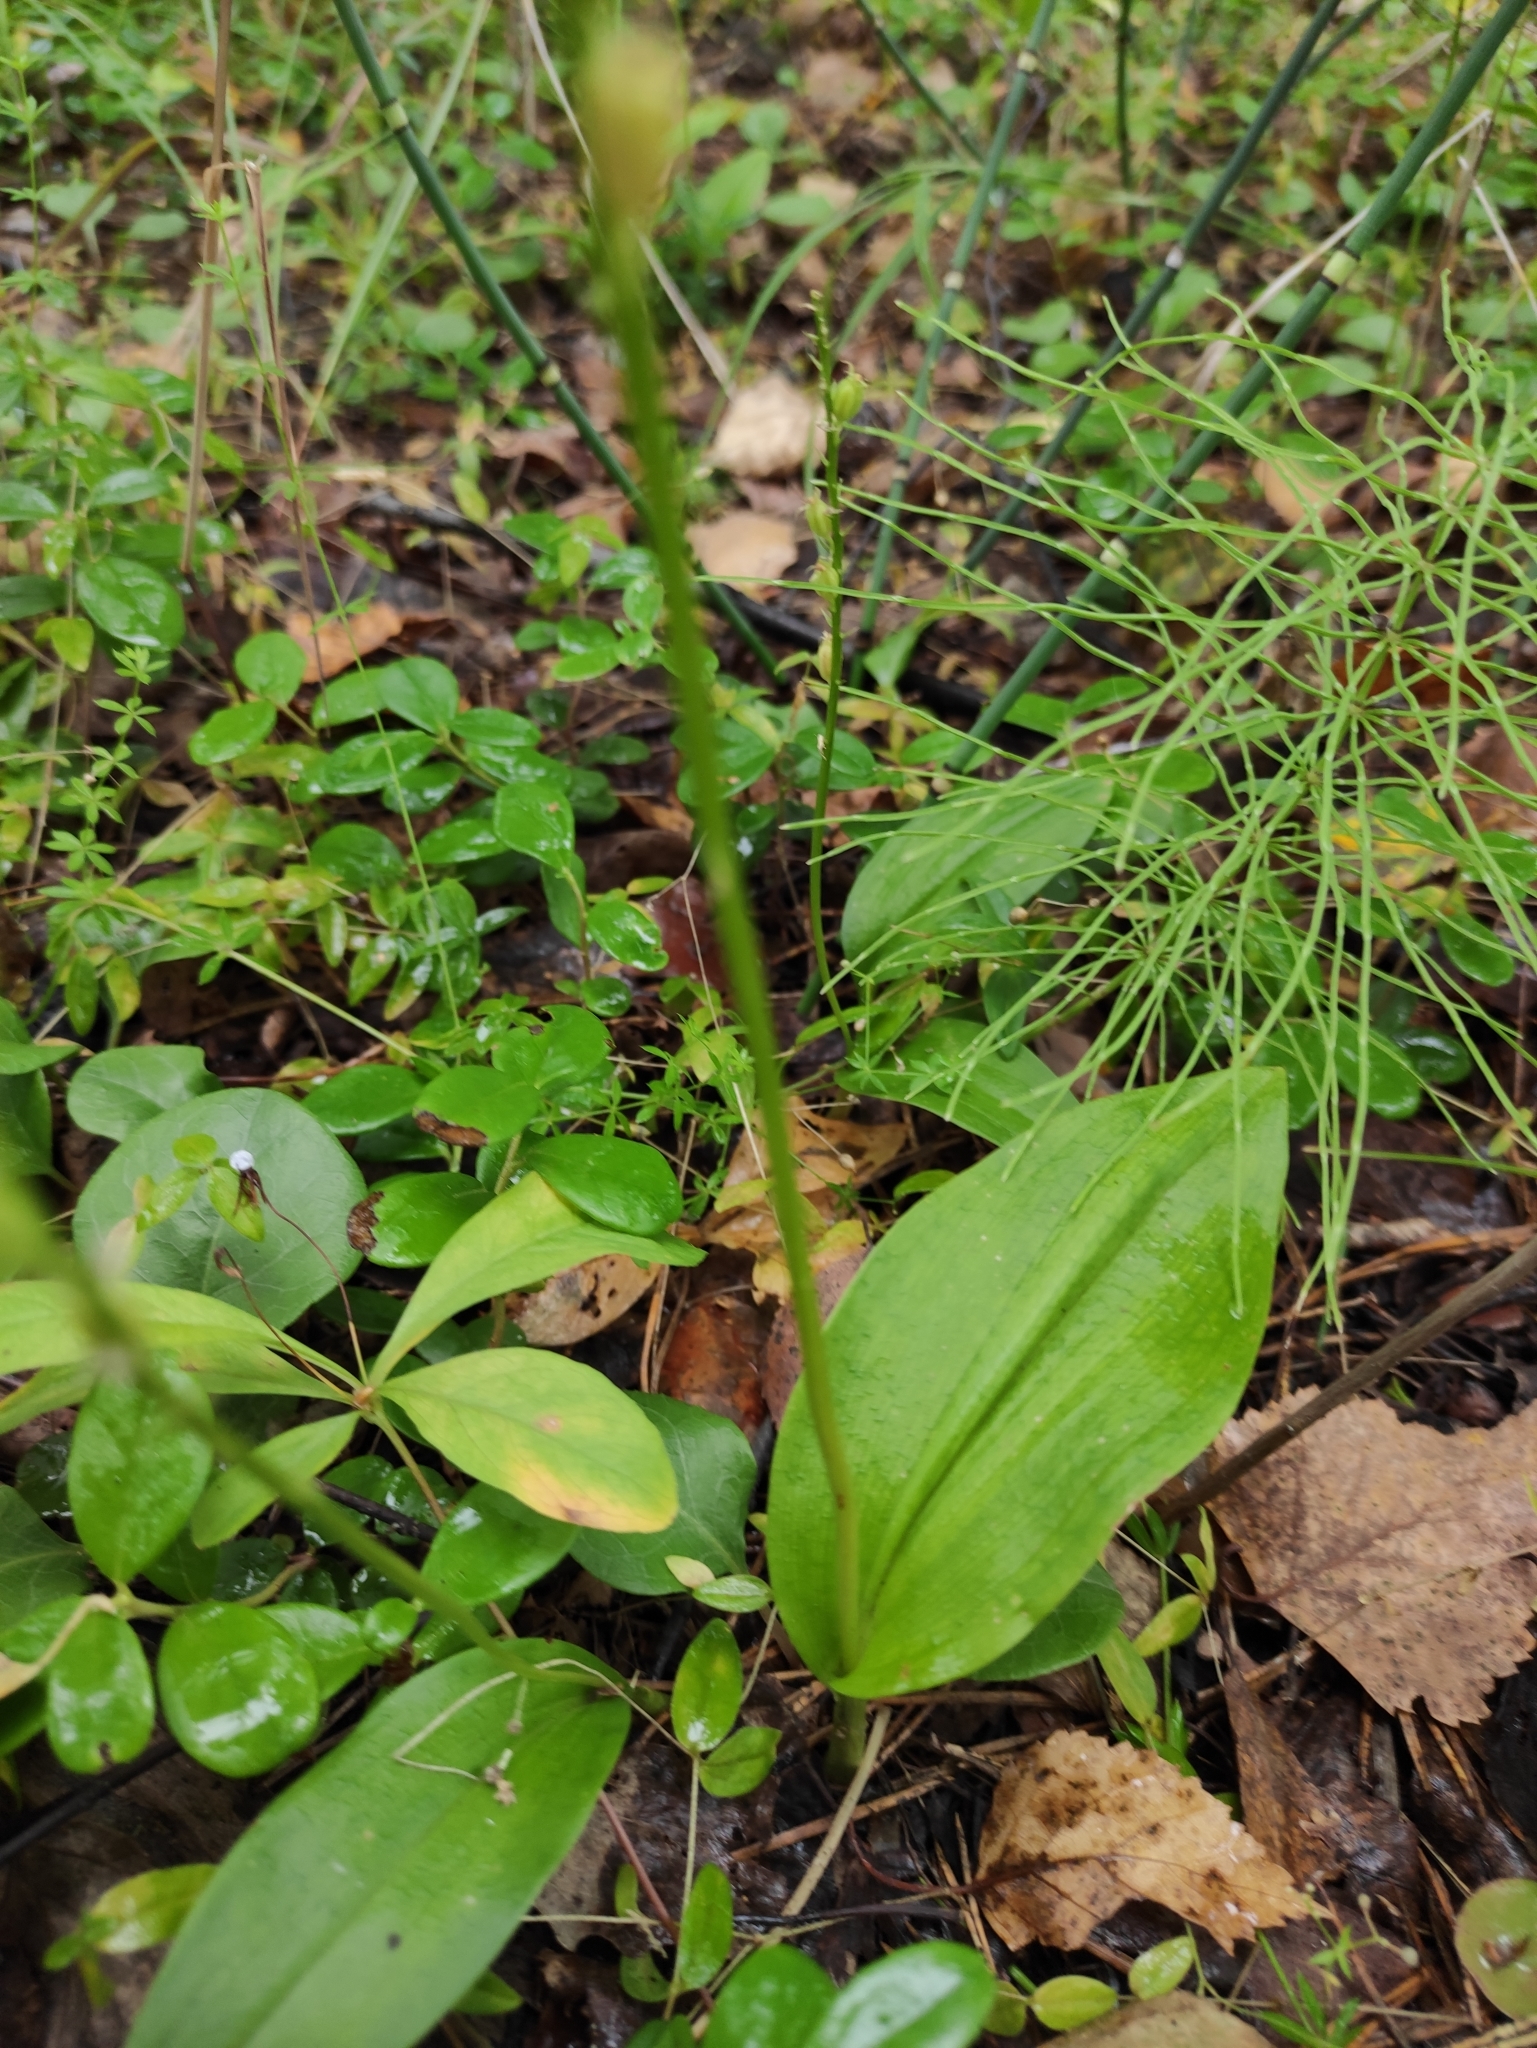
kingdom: Plantae
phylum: Tracheophyta
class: Liliopsida
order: Asparagales
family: Orchidaceae
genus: Malaxis
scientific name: Malaxis monophyllos
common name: White adder's-mouth
